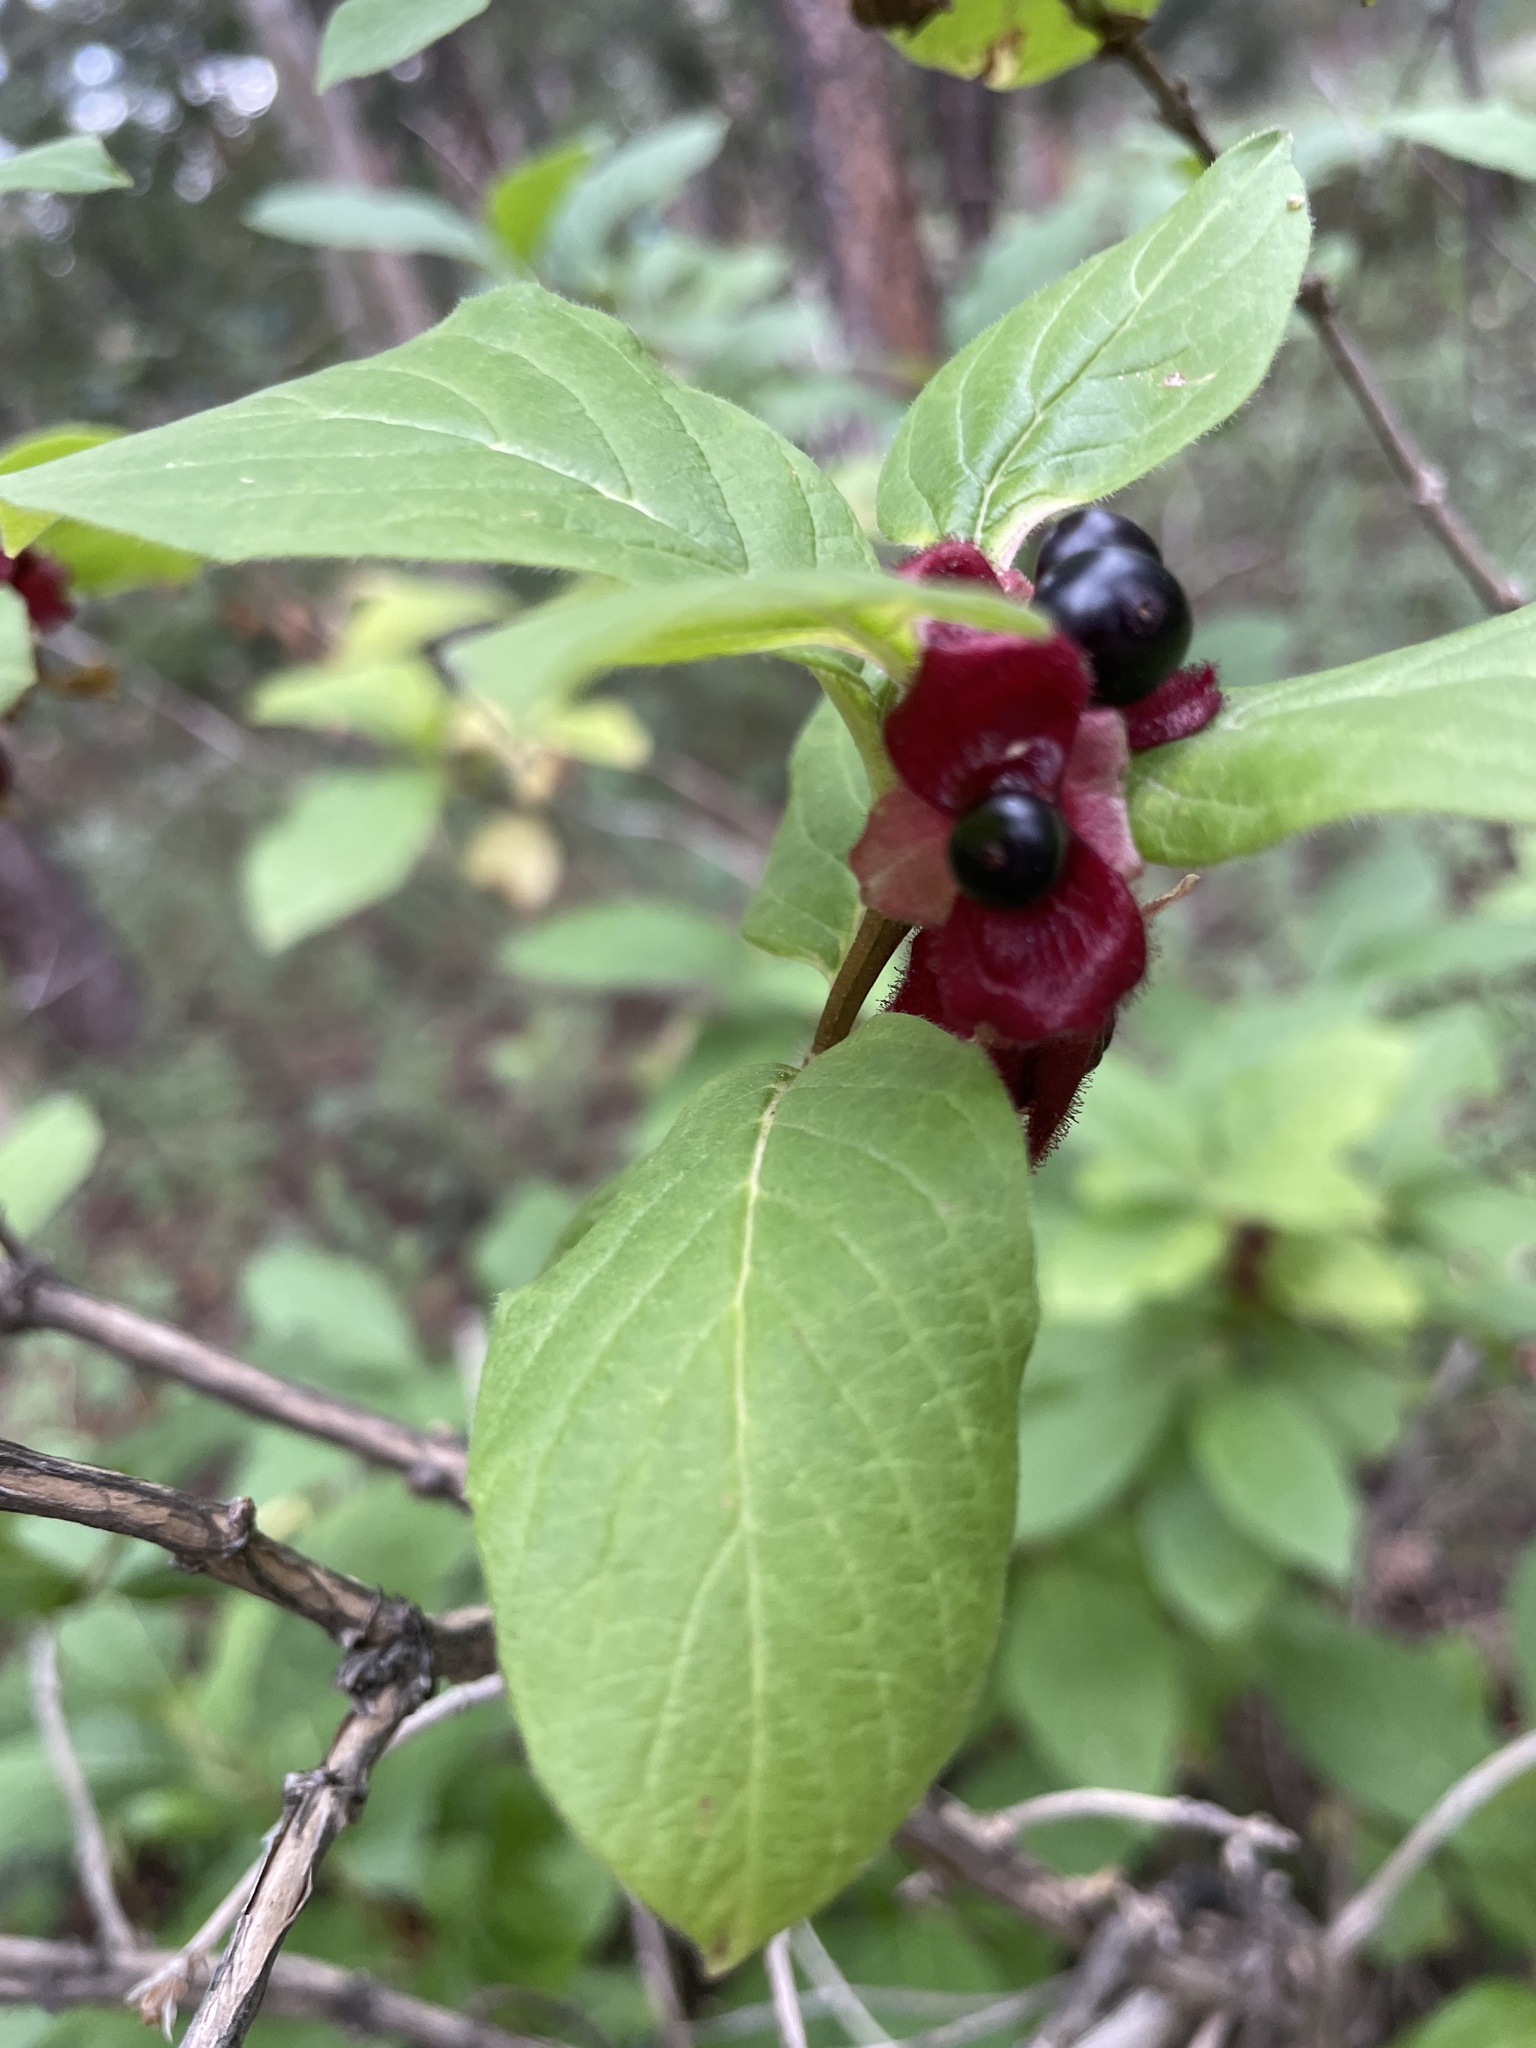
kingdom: Plantae
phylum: Tracheophyta
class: Magnoliopsida
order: Dipsacales
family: Caprifoliaceae
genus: Lonicera
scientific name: Lonicera involucrata
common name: Californian honeysuckle
